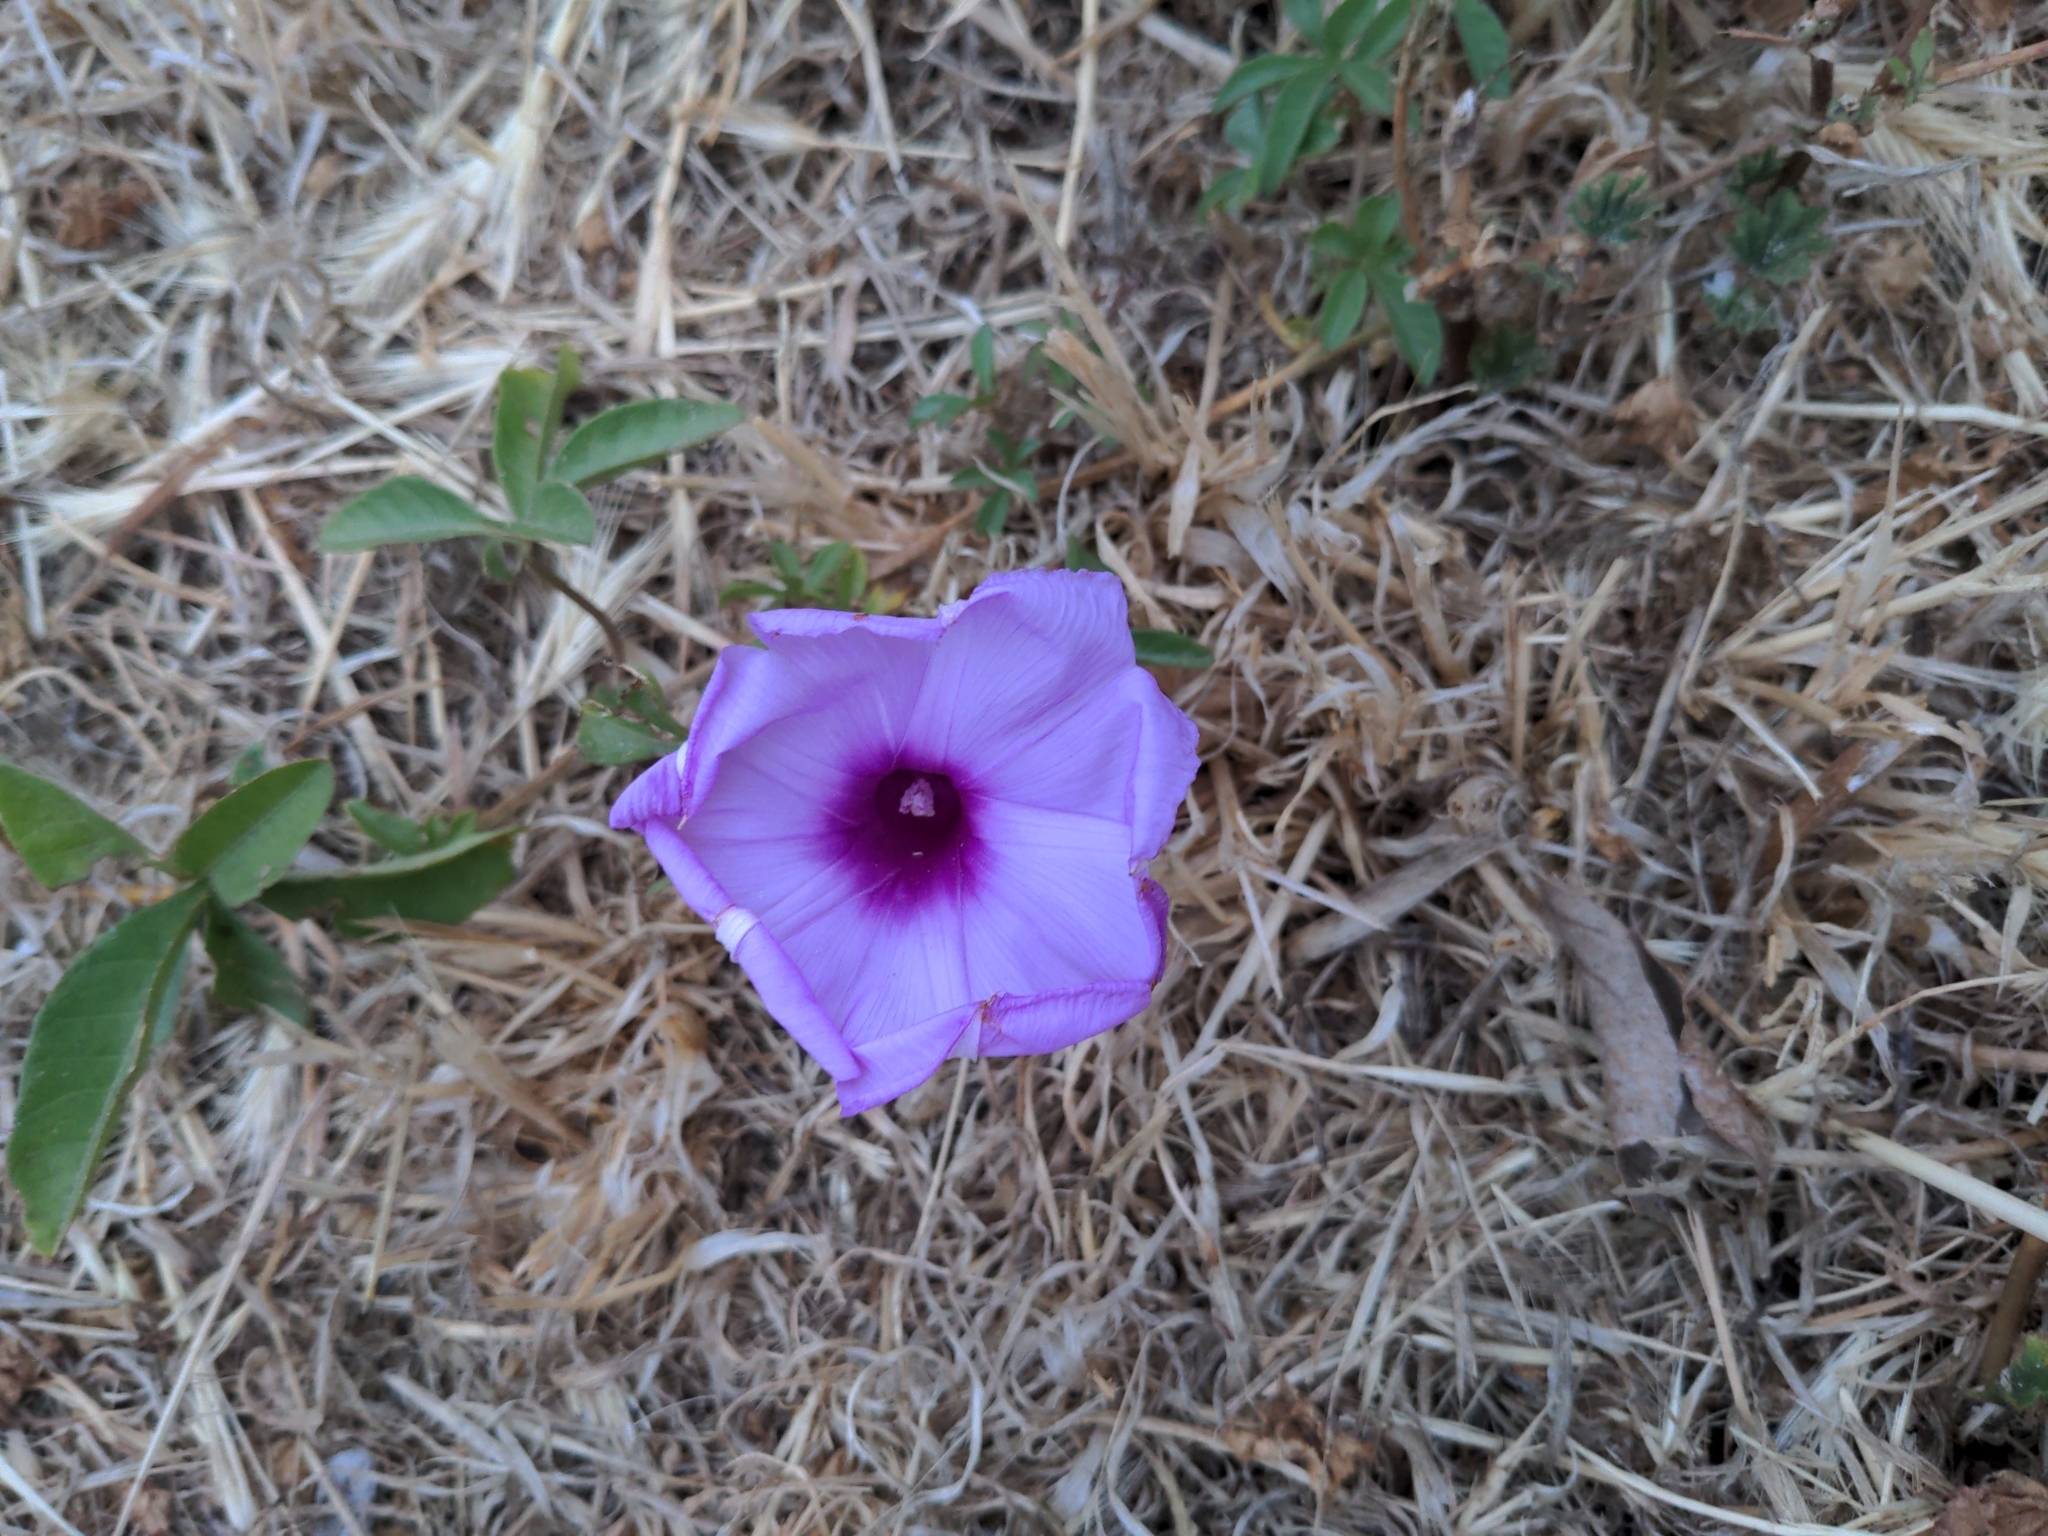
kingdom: Plantae
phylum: Tracheophyta
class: Magnoliopsida
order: Solanales
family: Convolvulaceae
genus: Ipomoea
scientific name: Ipomoea cairica
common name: Mile a minute vine
